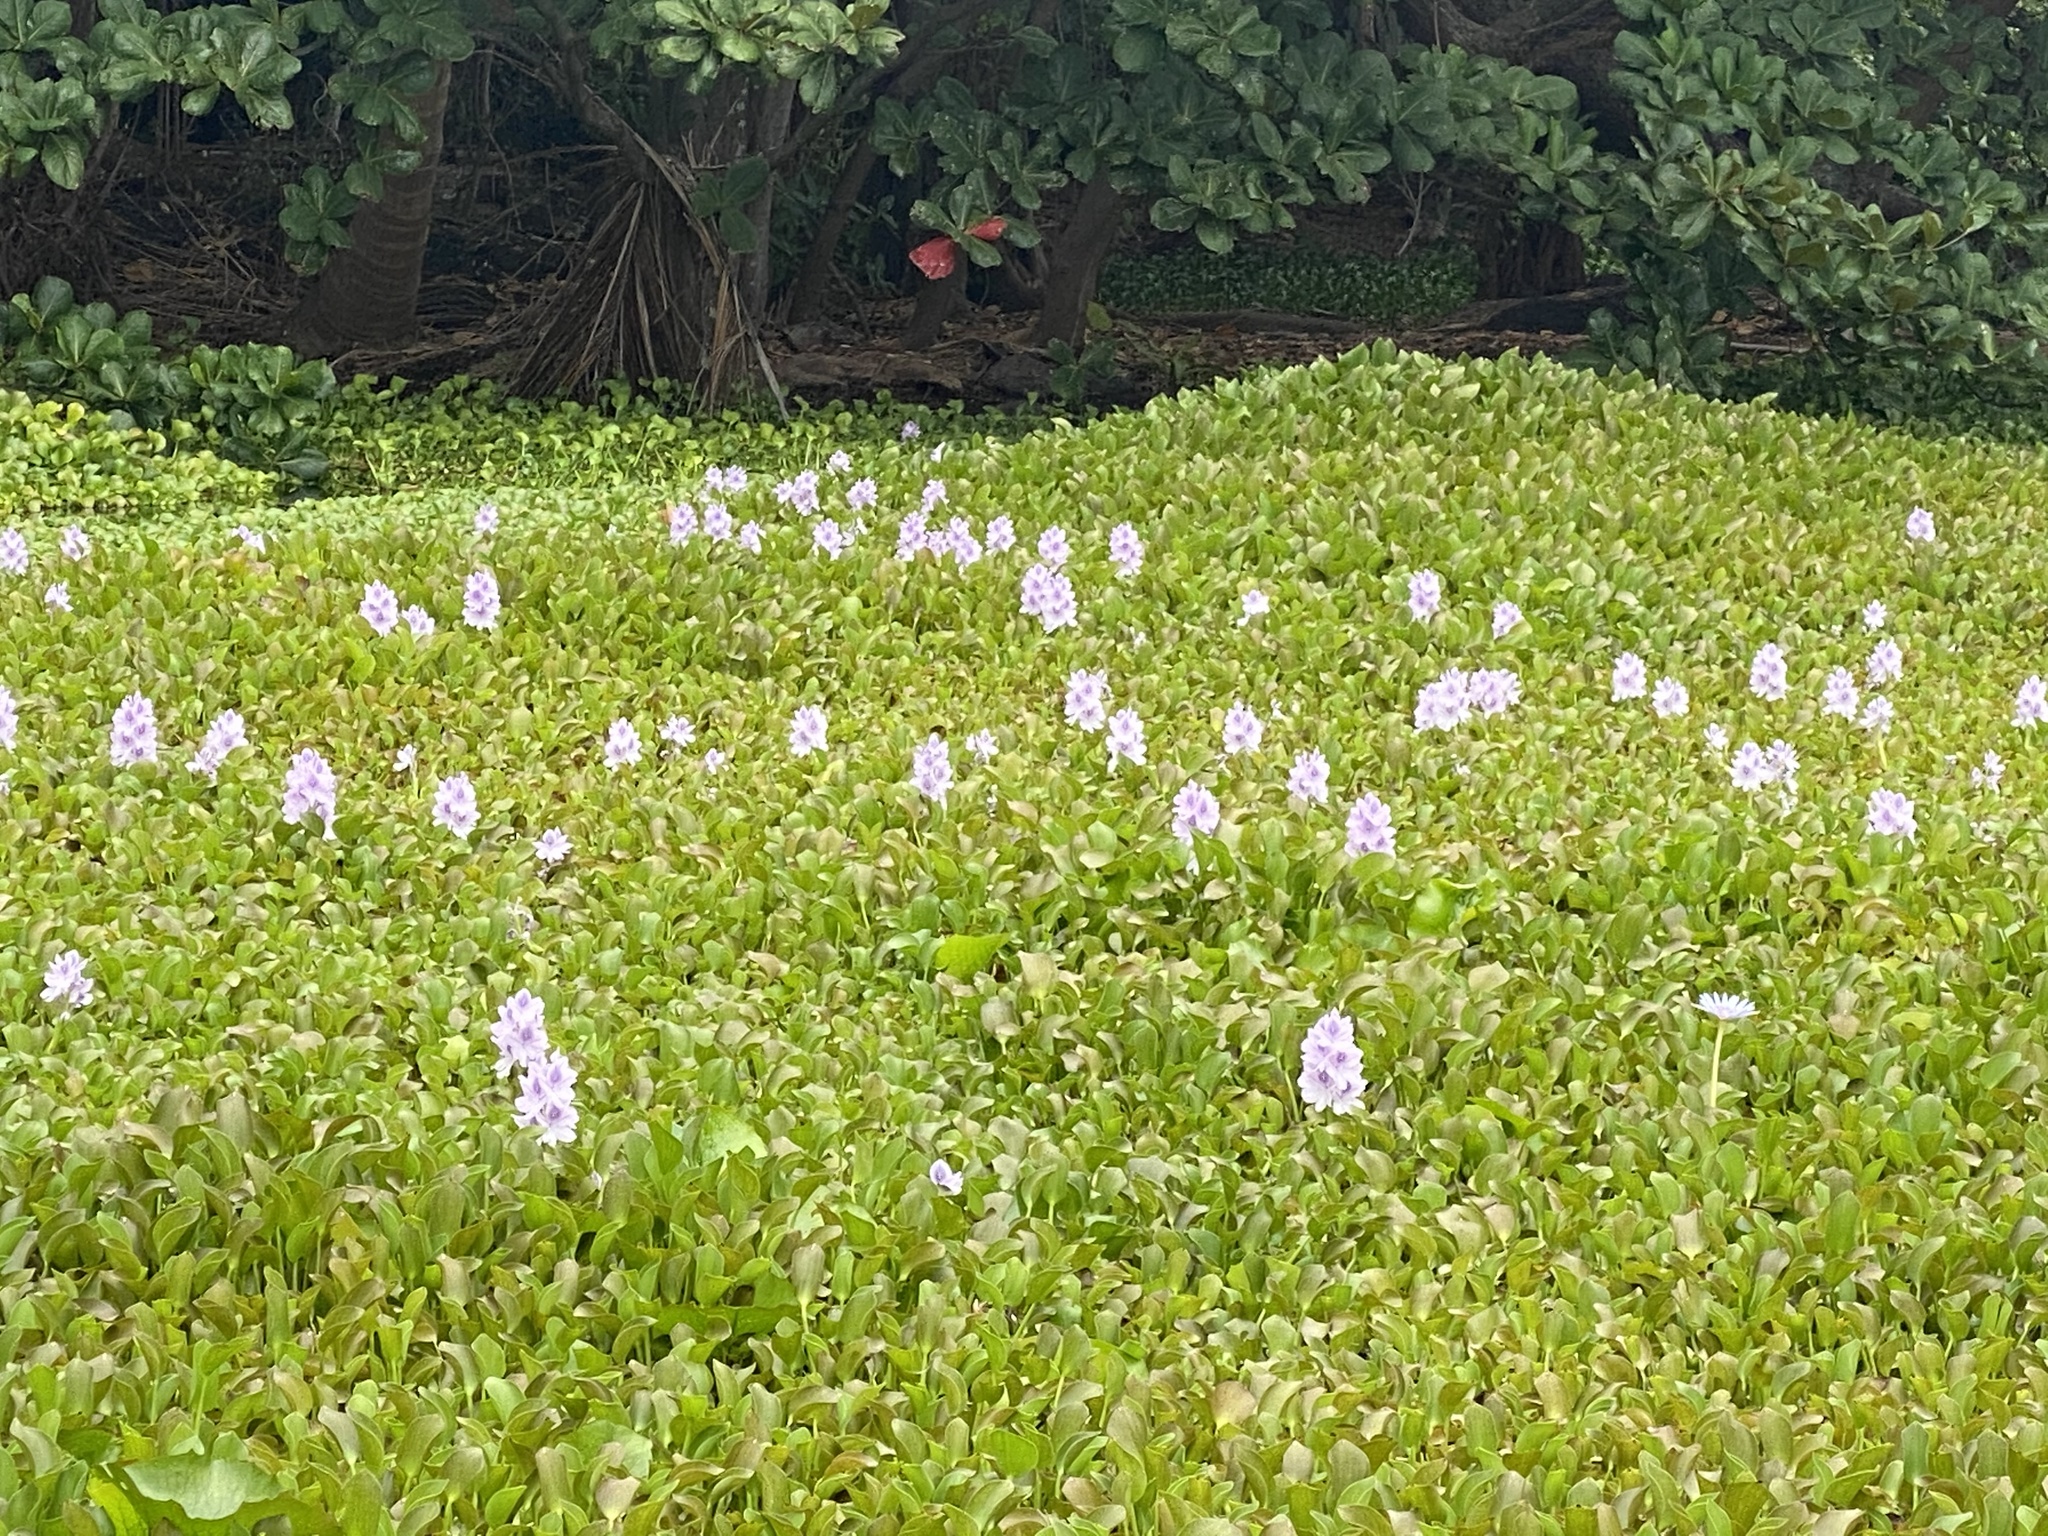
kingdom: Plantae
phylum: Tracheophyta
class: Liliopsida
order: Commelinales
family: Pontederiaceae
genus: Pontederia
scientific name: Pontederia crassipes
